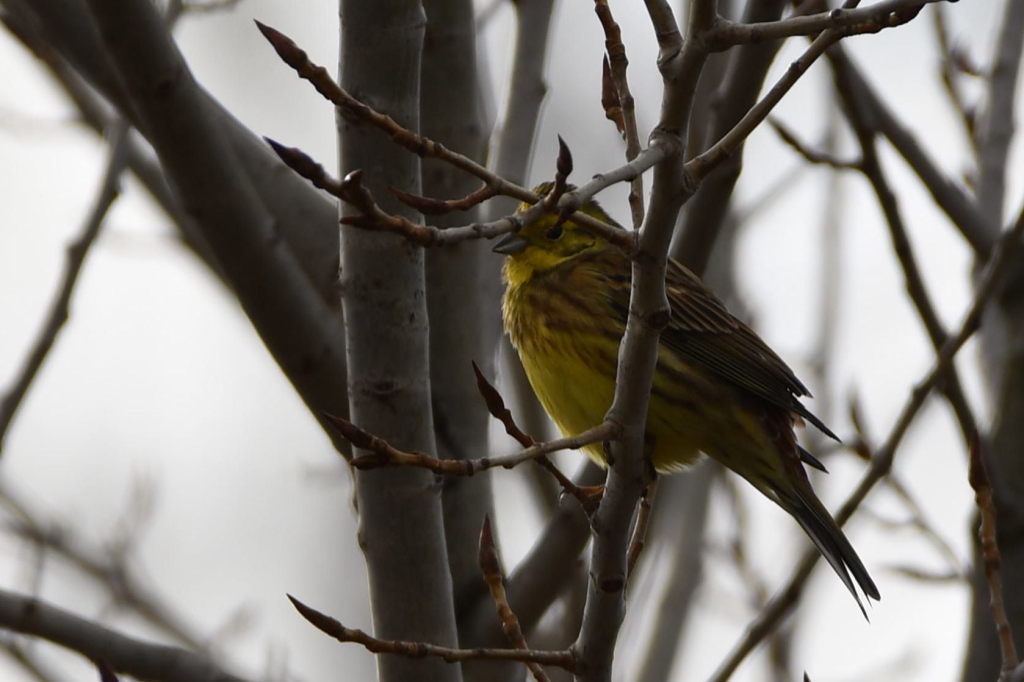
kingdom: Animalia
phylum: Chordata
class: Aves
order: Passeriformes
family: Emberizidae
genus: Emberiza
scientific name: Emberiza citrinella
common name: Yellowhammer
